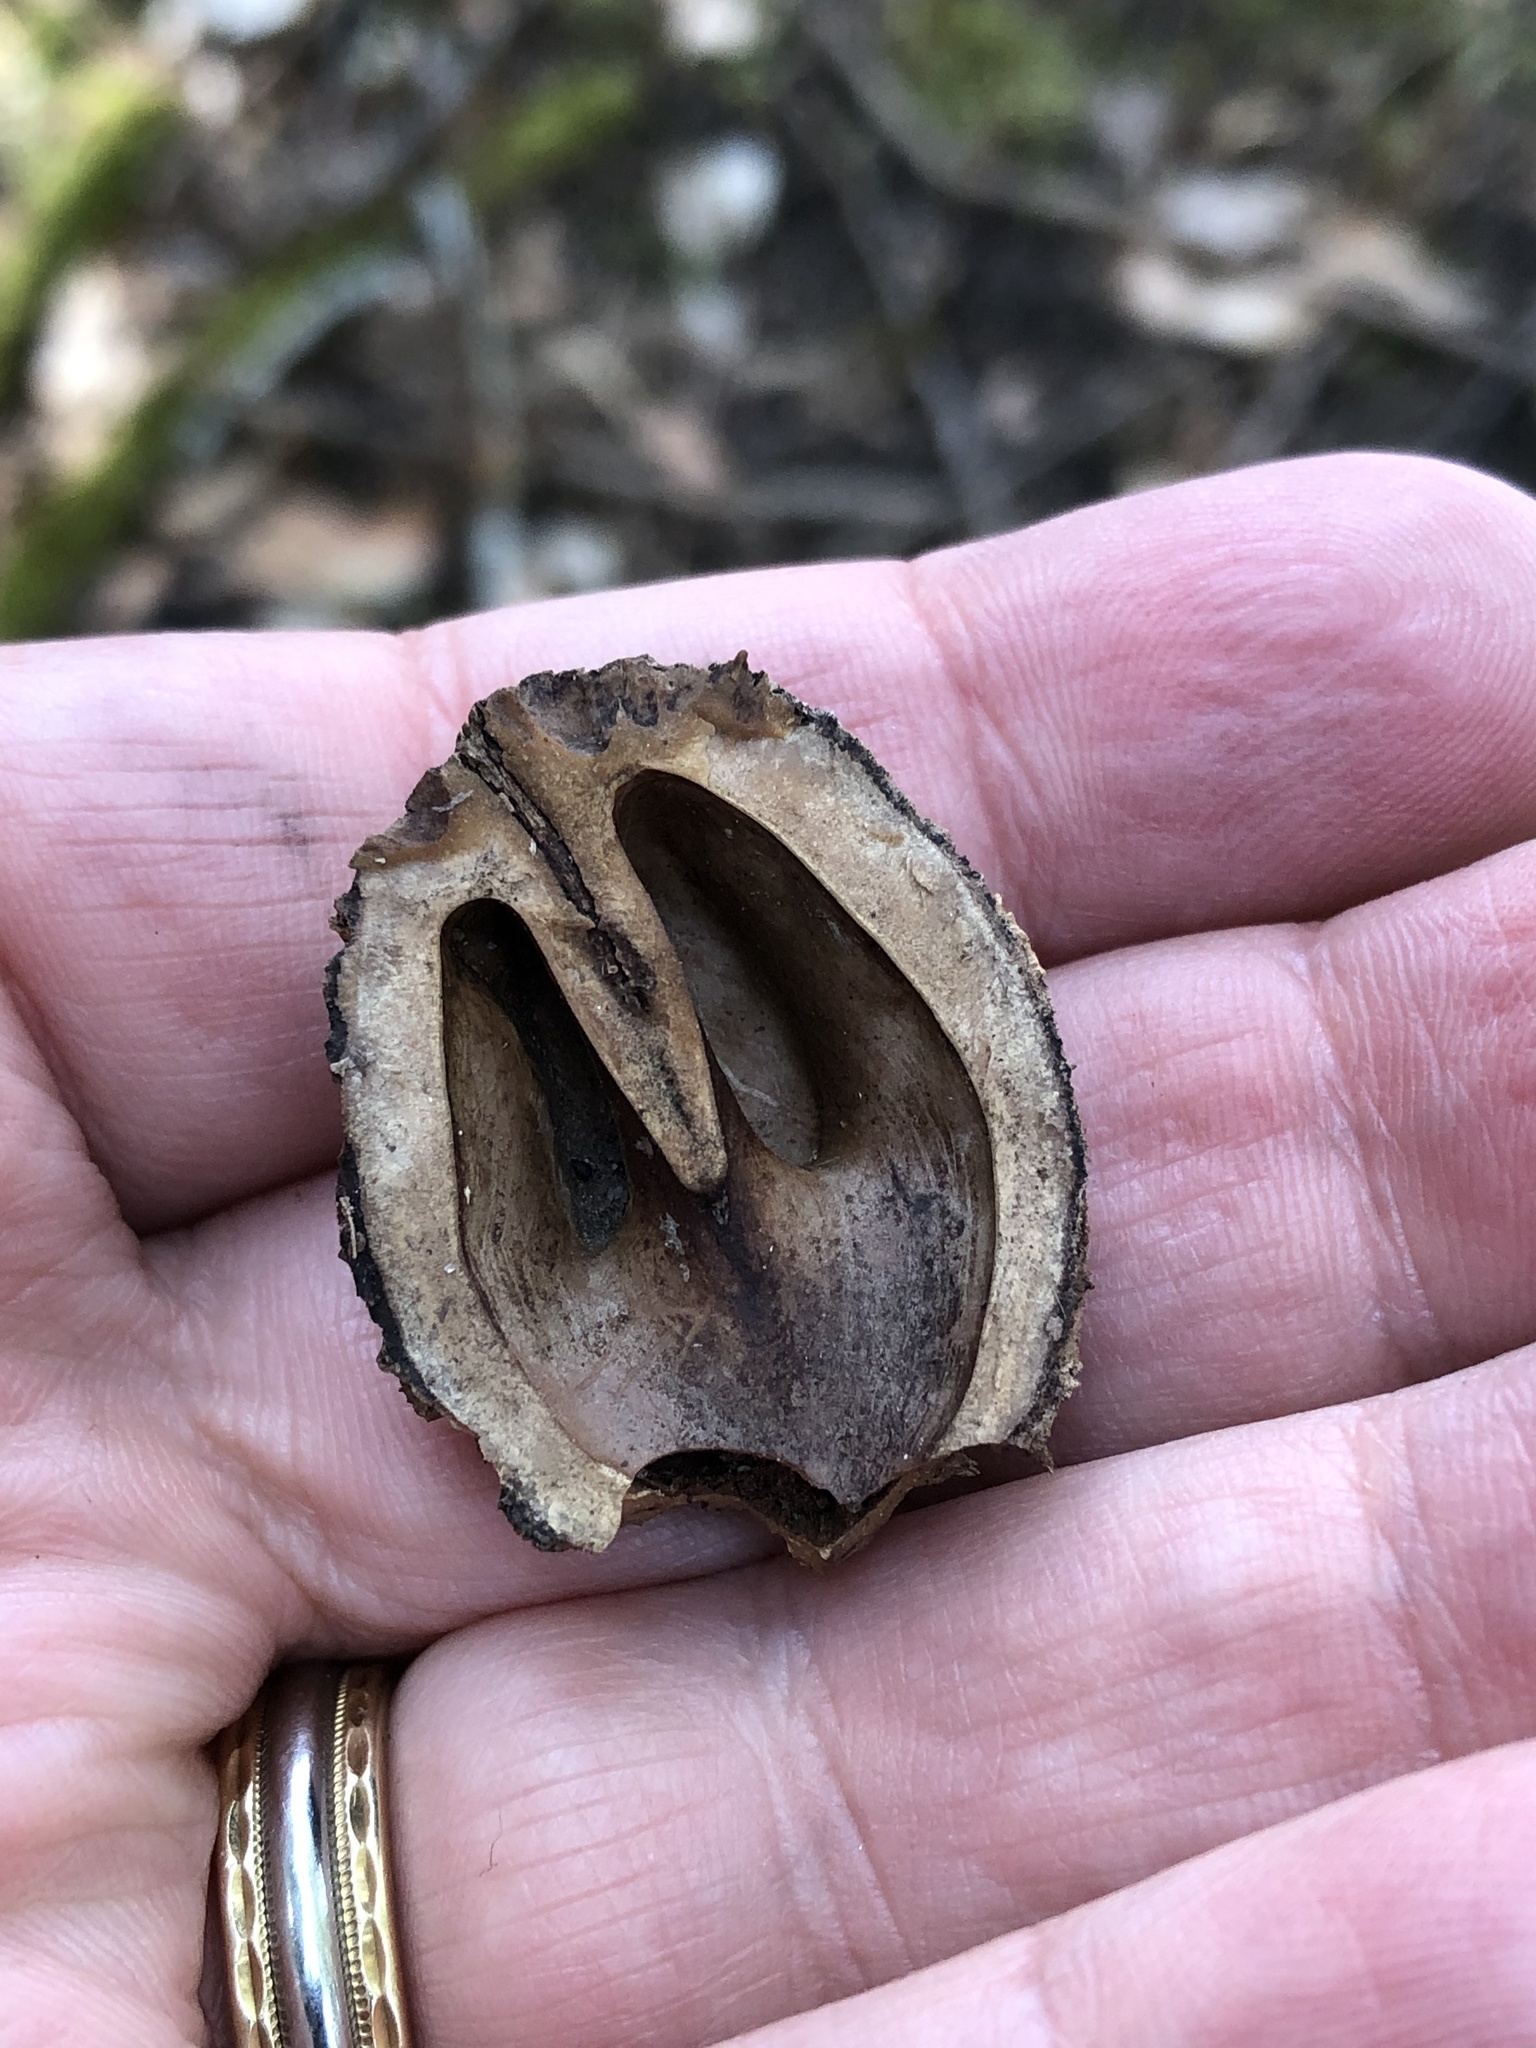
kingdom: Plantae
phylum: Tracheophyta
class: Magnoliopsida
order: Fagales
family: Juglandaceae
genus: Juglans
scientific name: Juglans nigra
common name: Black walnut
